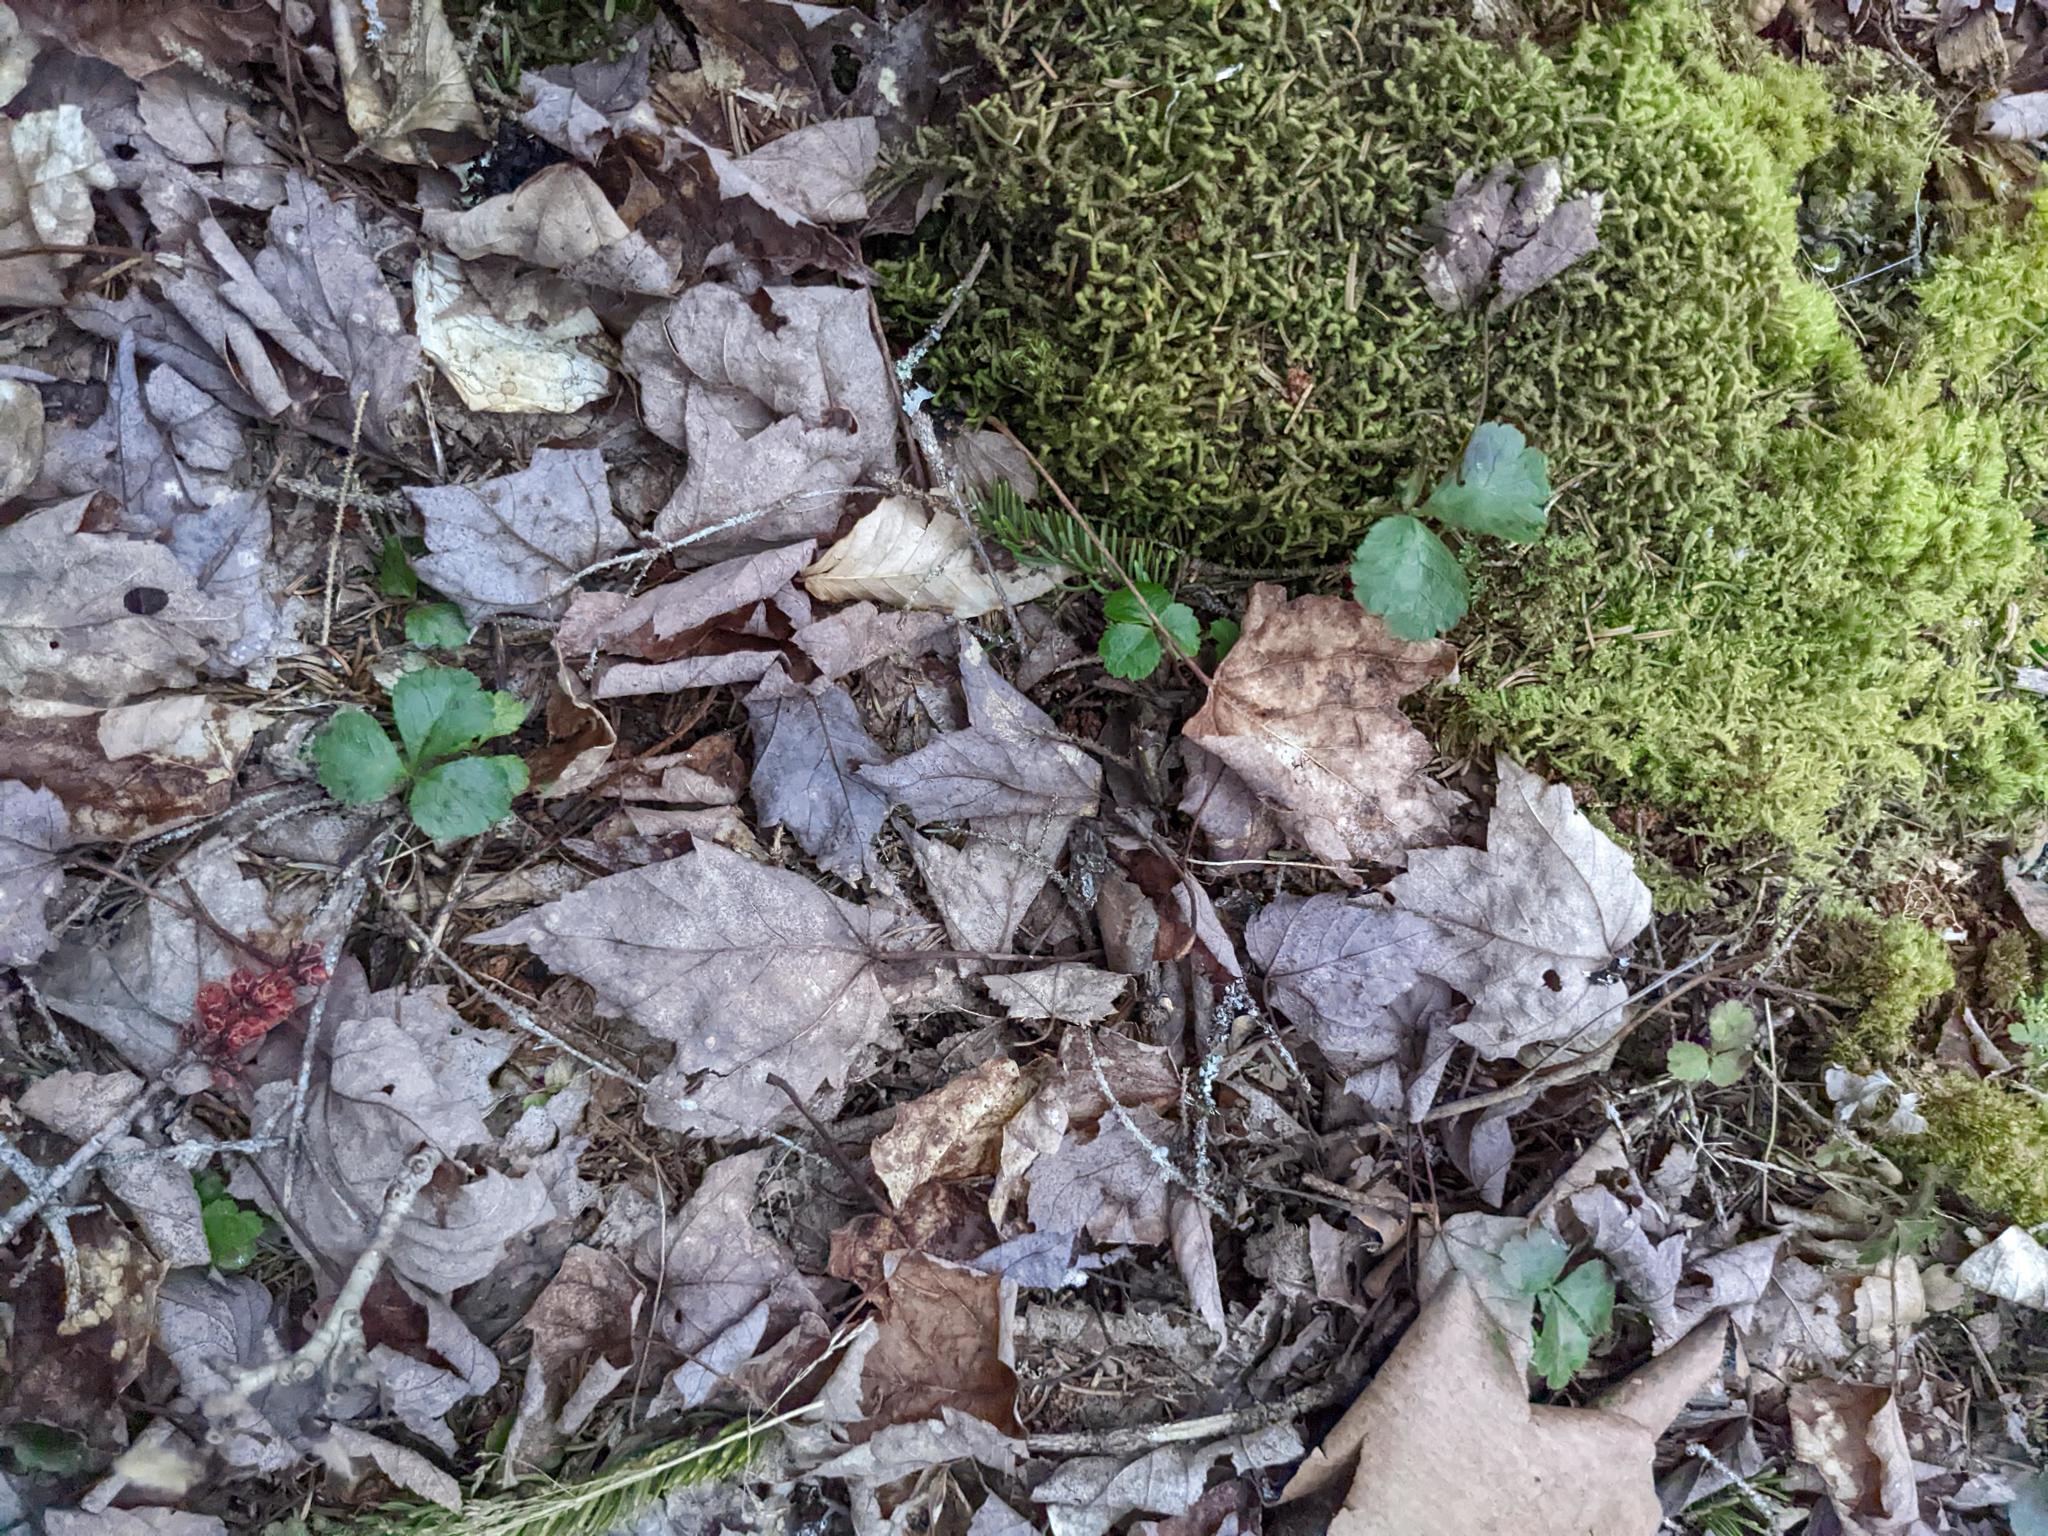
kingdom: Plantae
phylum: Tracheophyta
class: Magnoliopsida
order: Ranunculales
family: Ranunculaceae
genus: Coptis
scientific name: Coptis trifolia
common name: Canker-root
